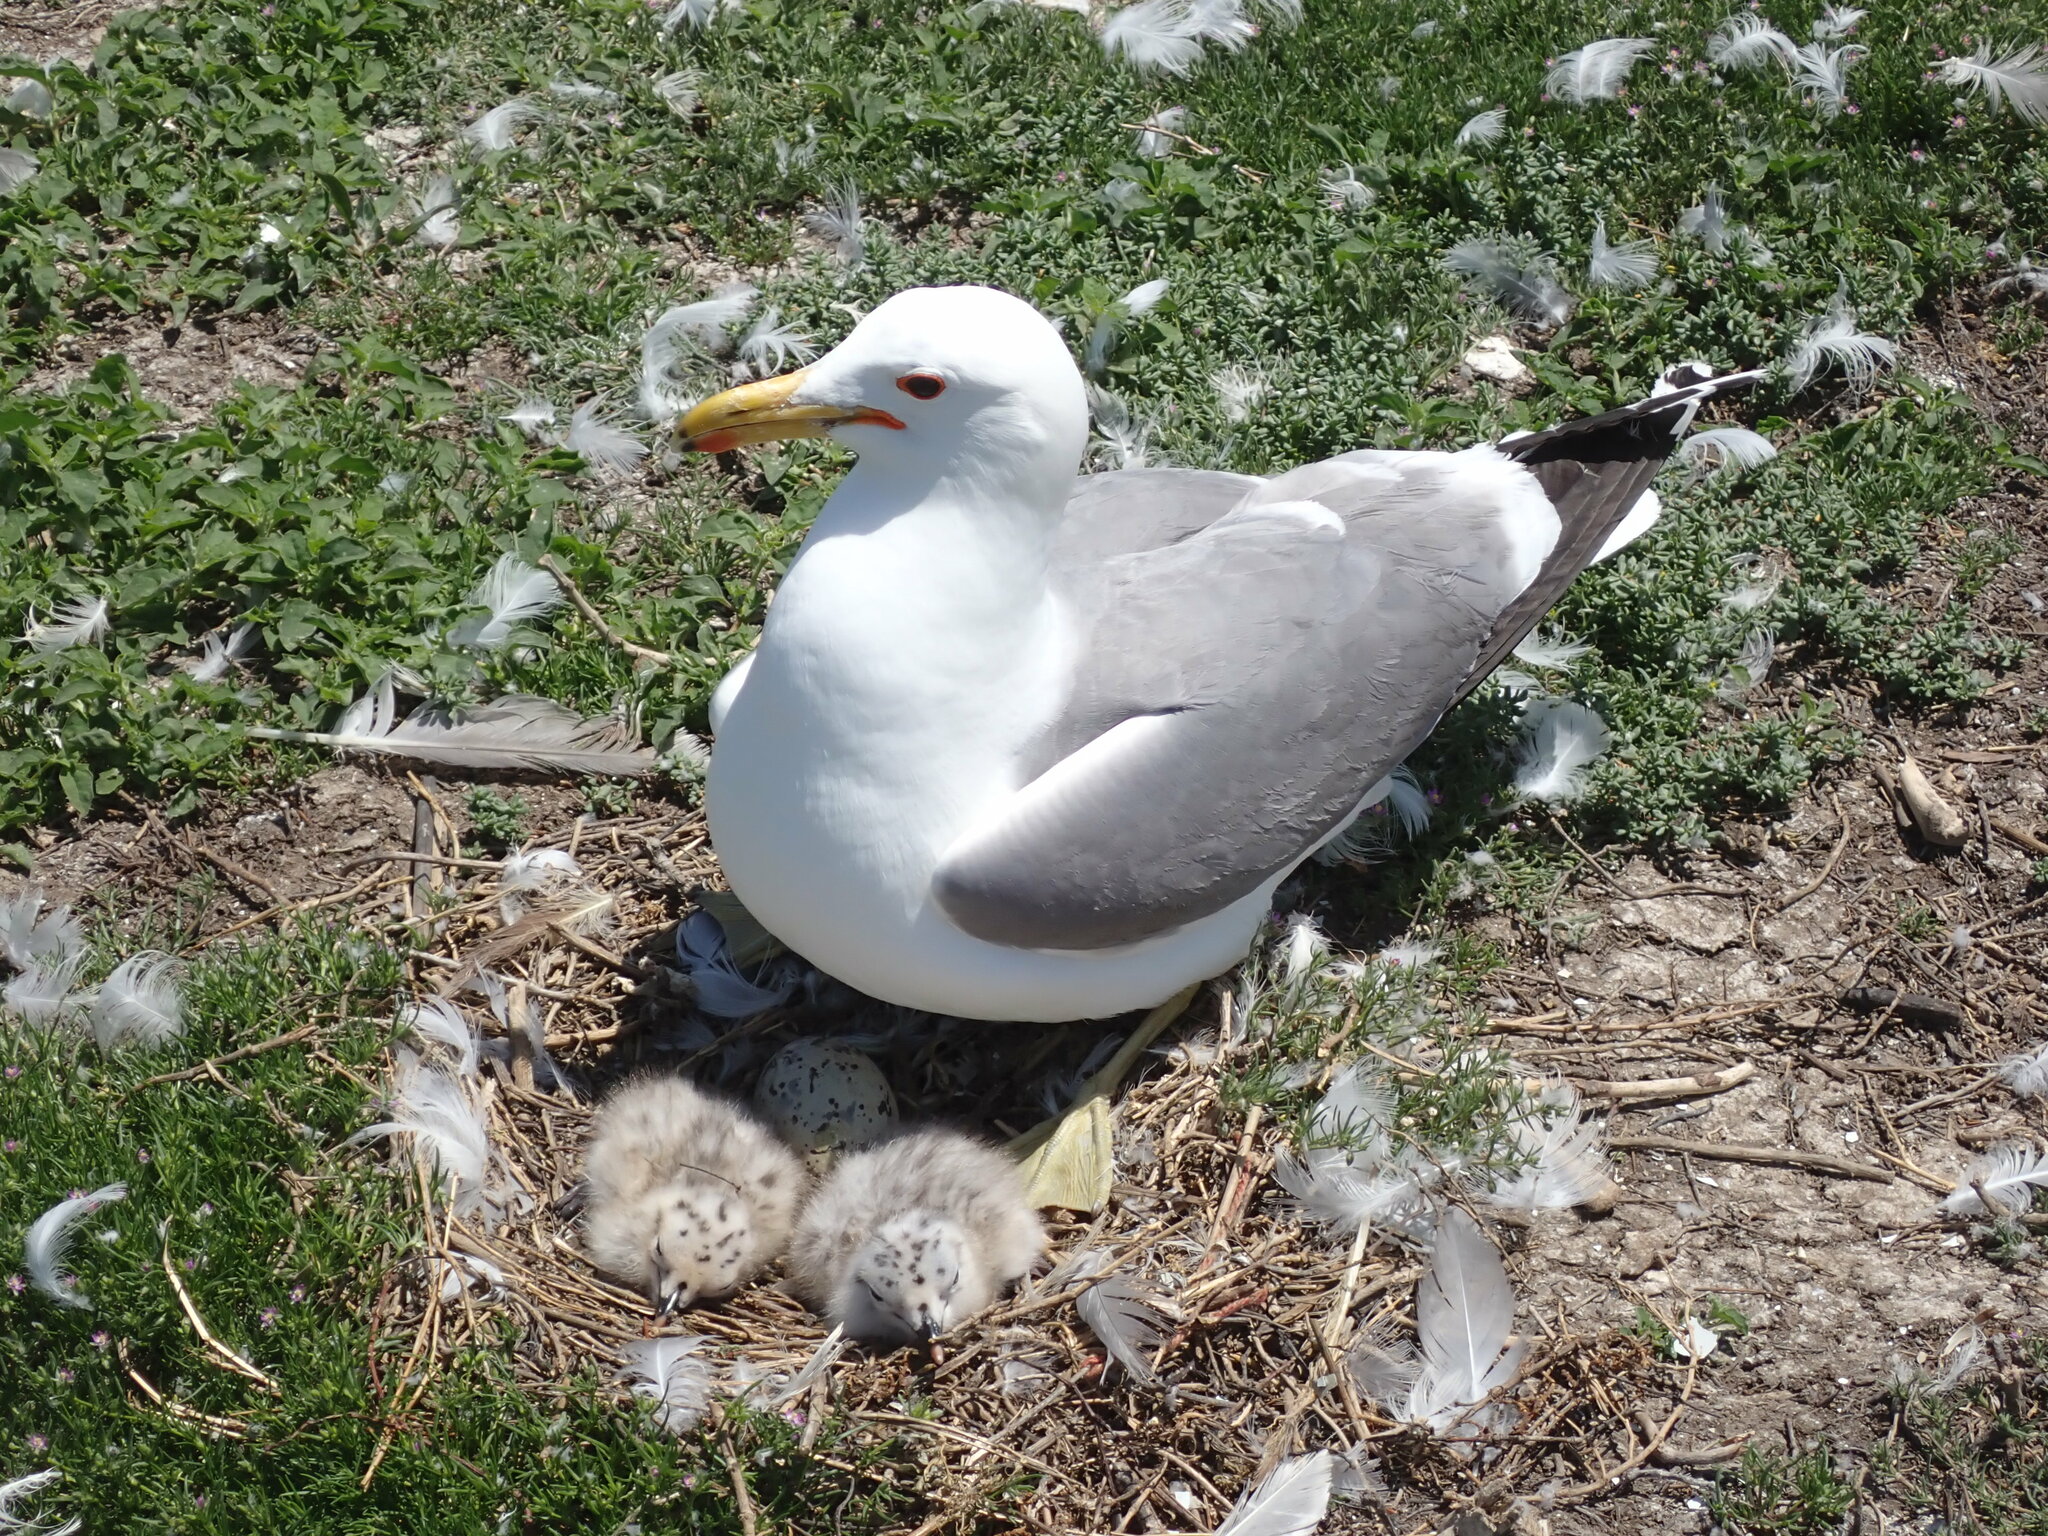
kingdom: Animalia
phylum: Chordata
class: Aves
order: Charadriiformes
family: Laridae
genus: Larus
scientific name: Larus californicus
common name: California gull
